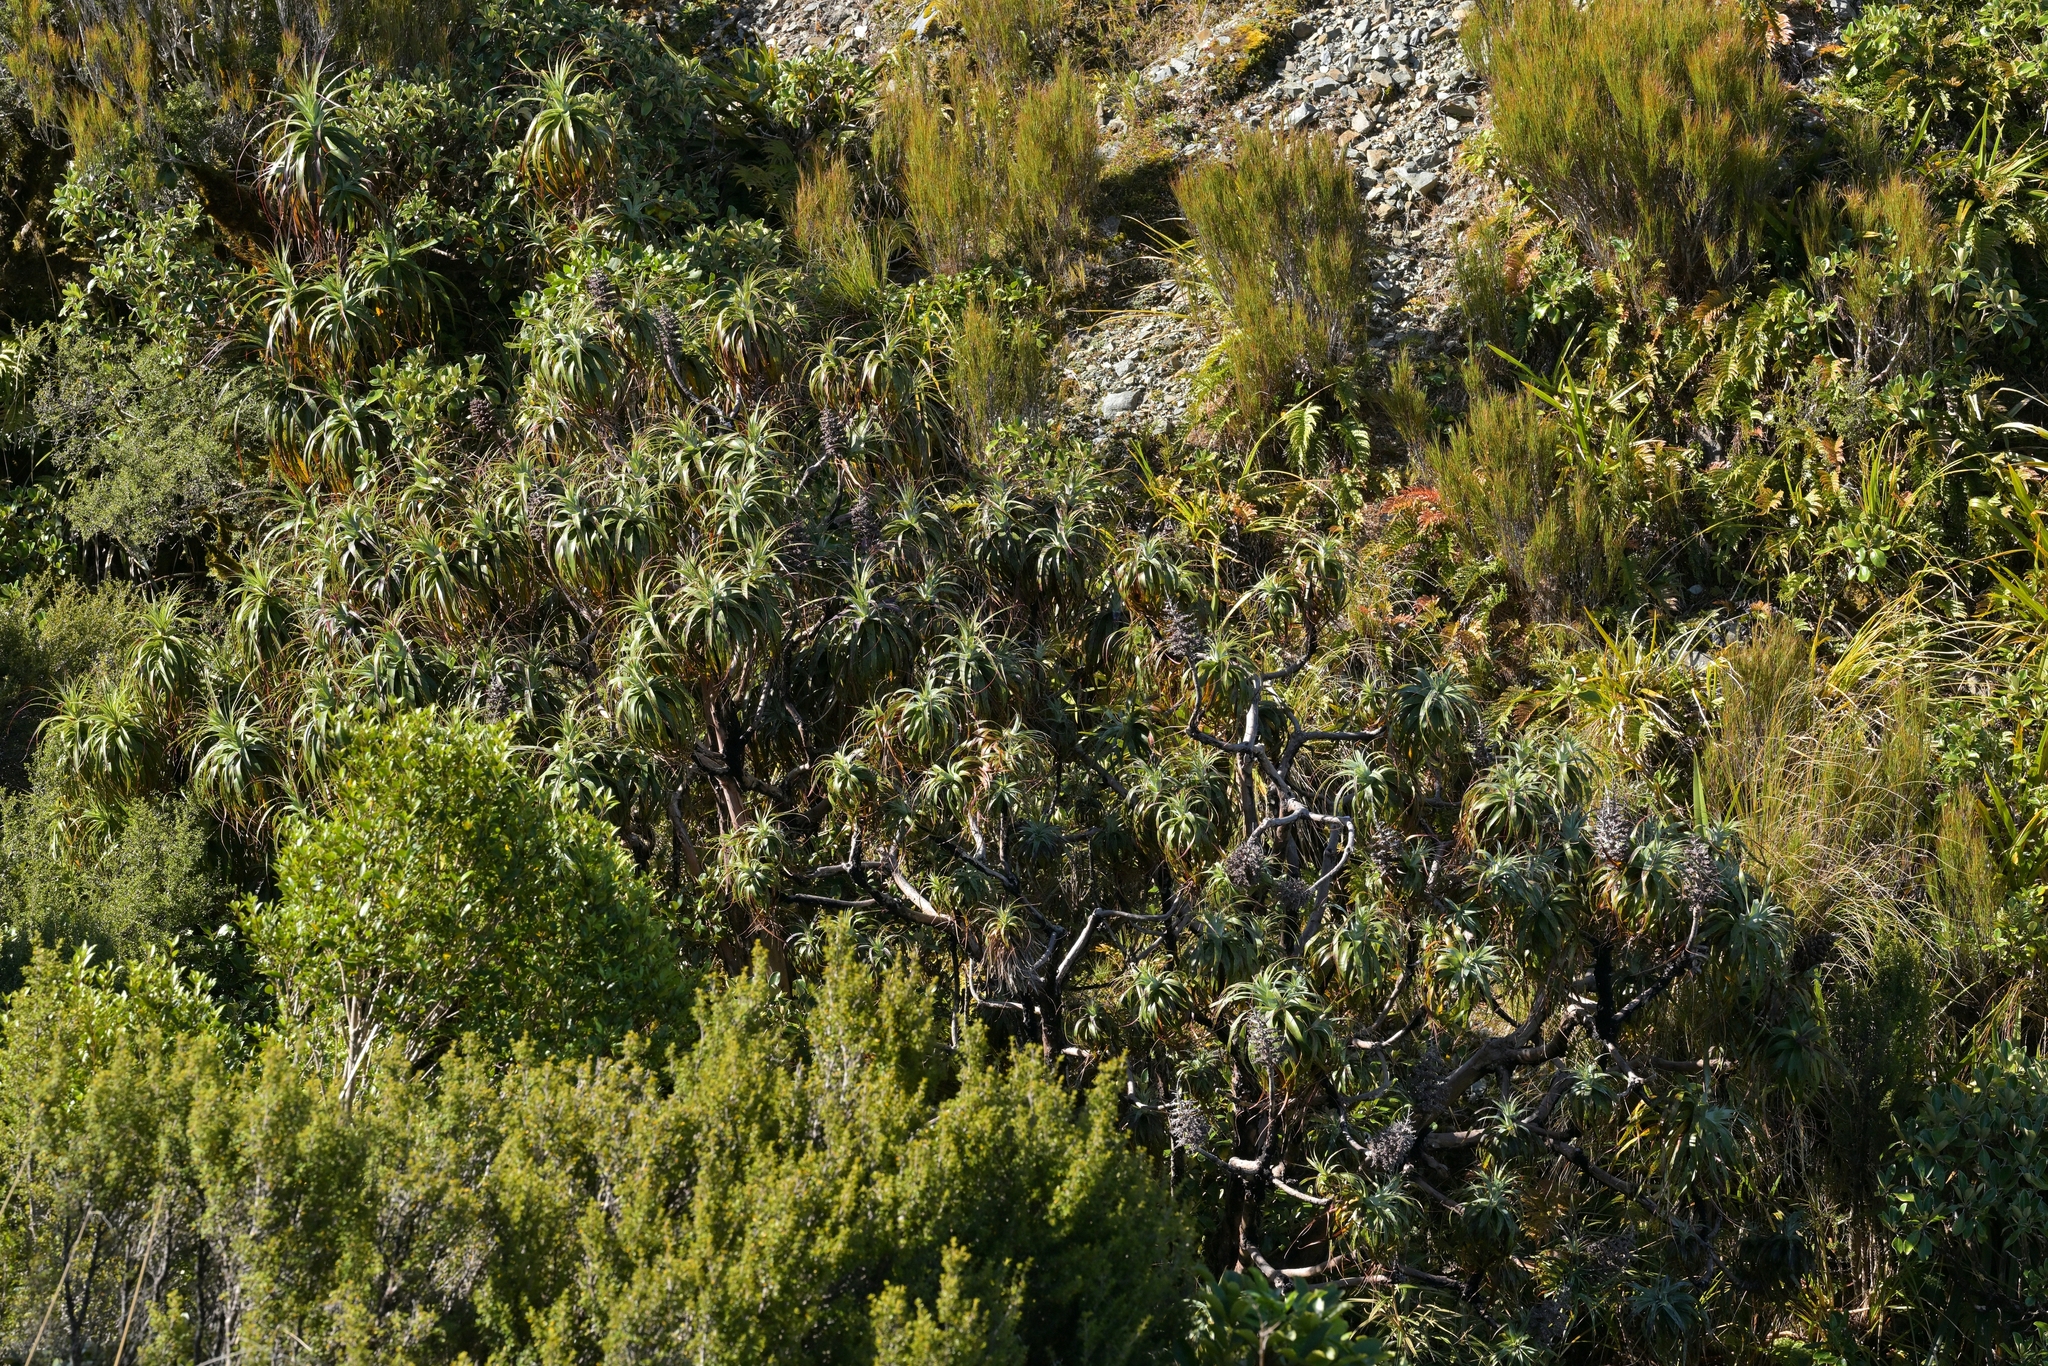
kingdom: Plantae
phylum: Tracheophyta
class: Magnoliopsida
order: Ericales
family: Ericaceae
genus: Dracophyllum
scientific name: Dracophyllum traversii
